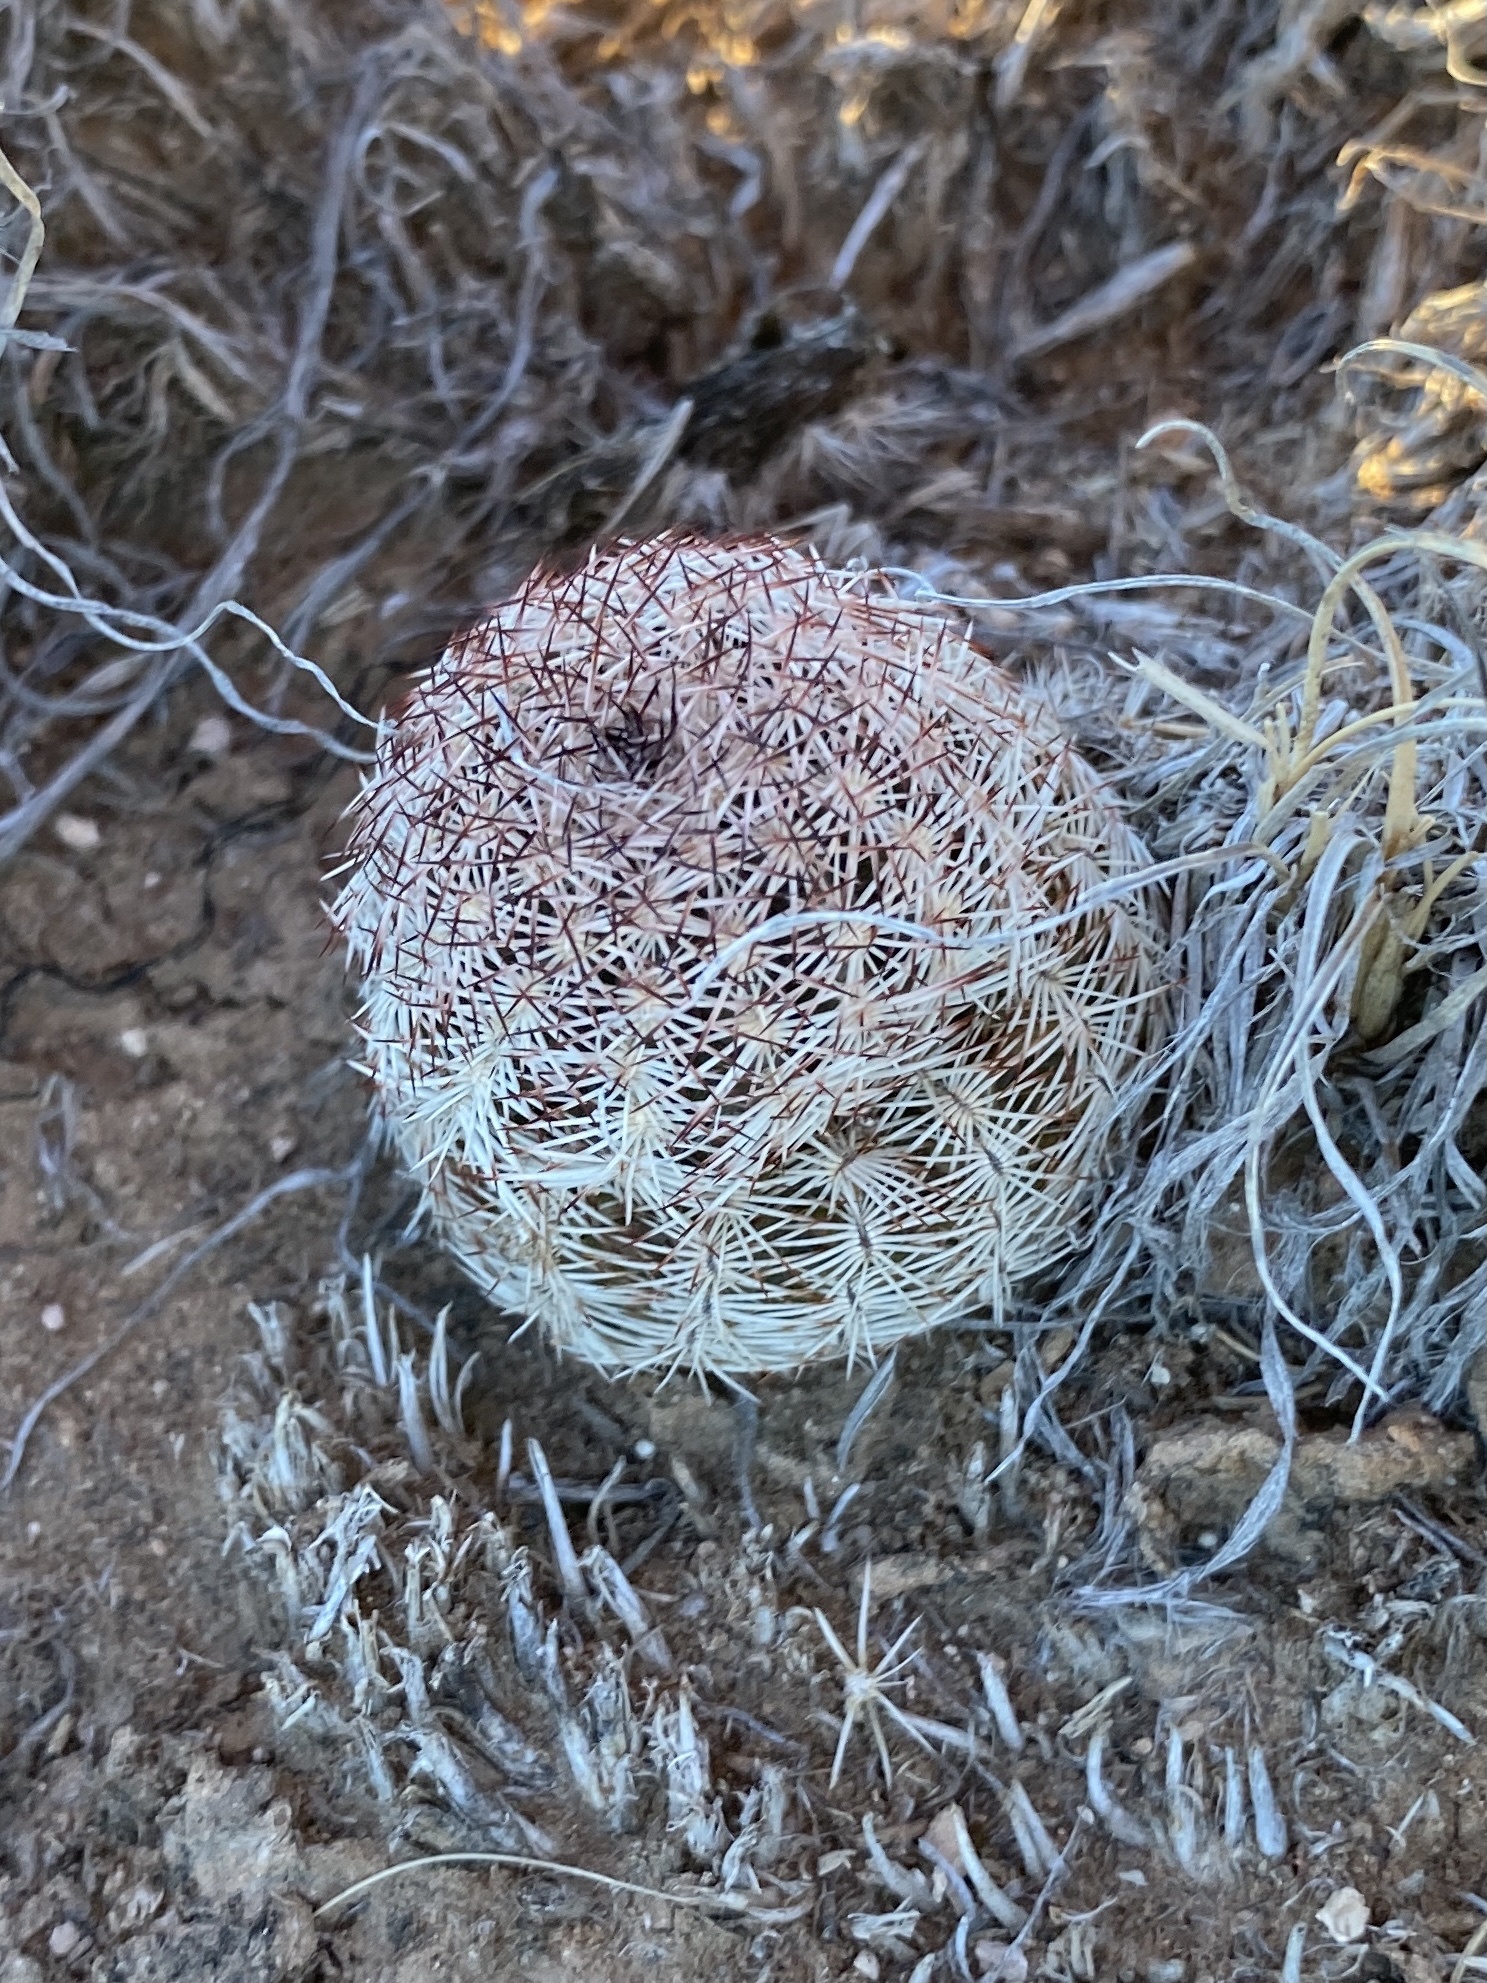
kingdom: Plantae
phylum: Tracheophyta
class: Magnoliopsida
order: Caryophyllales
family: Cactaceae
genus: Echinocereus
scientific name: Echinocereus reichenbachii
